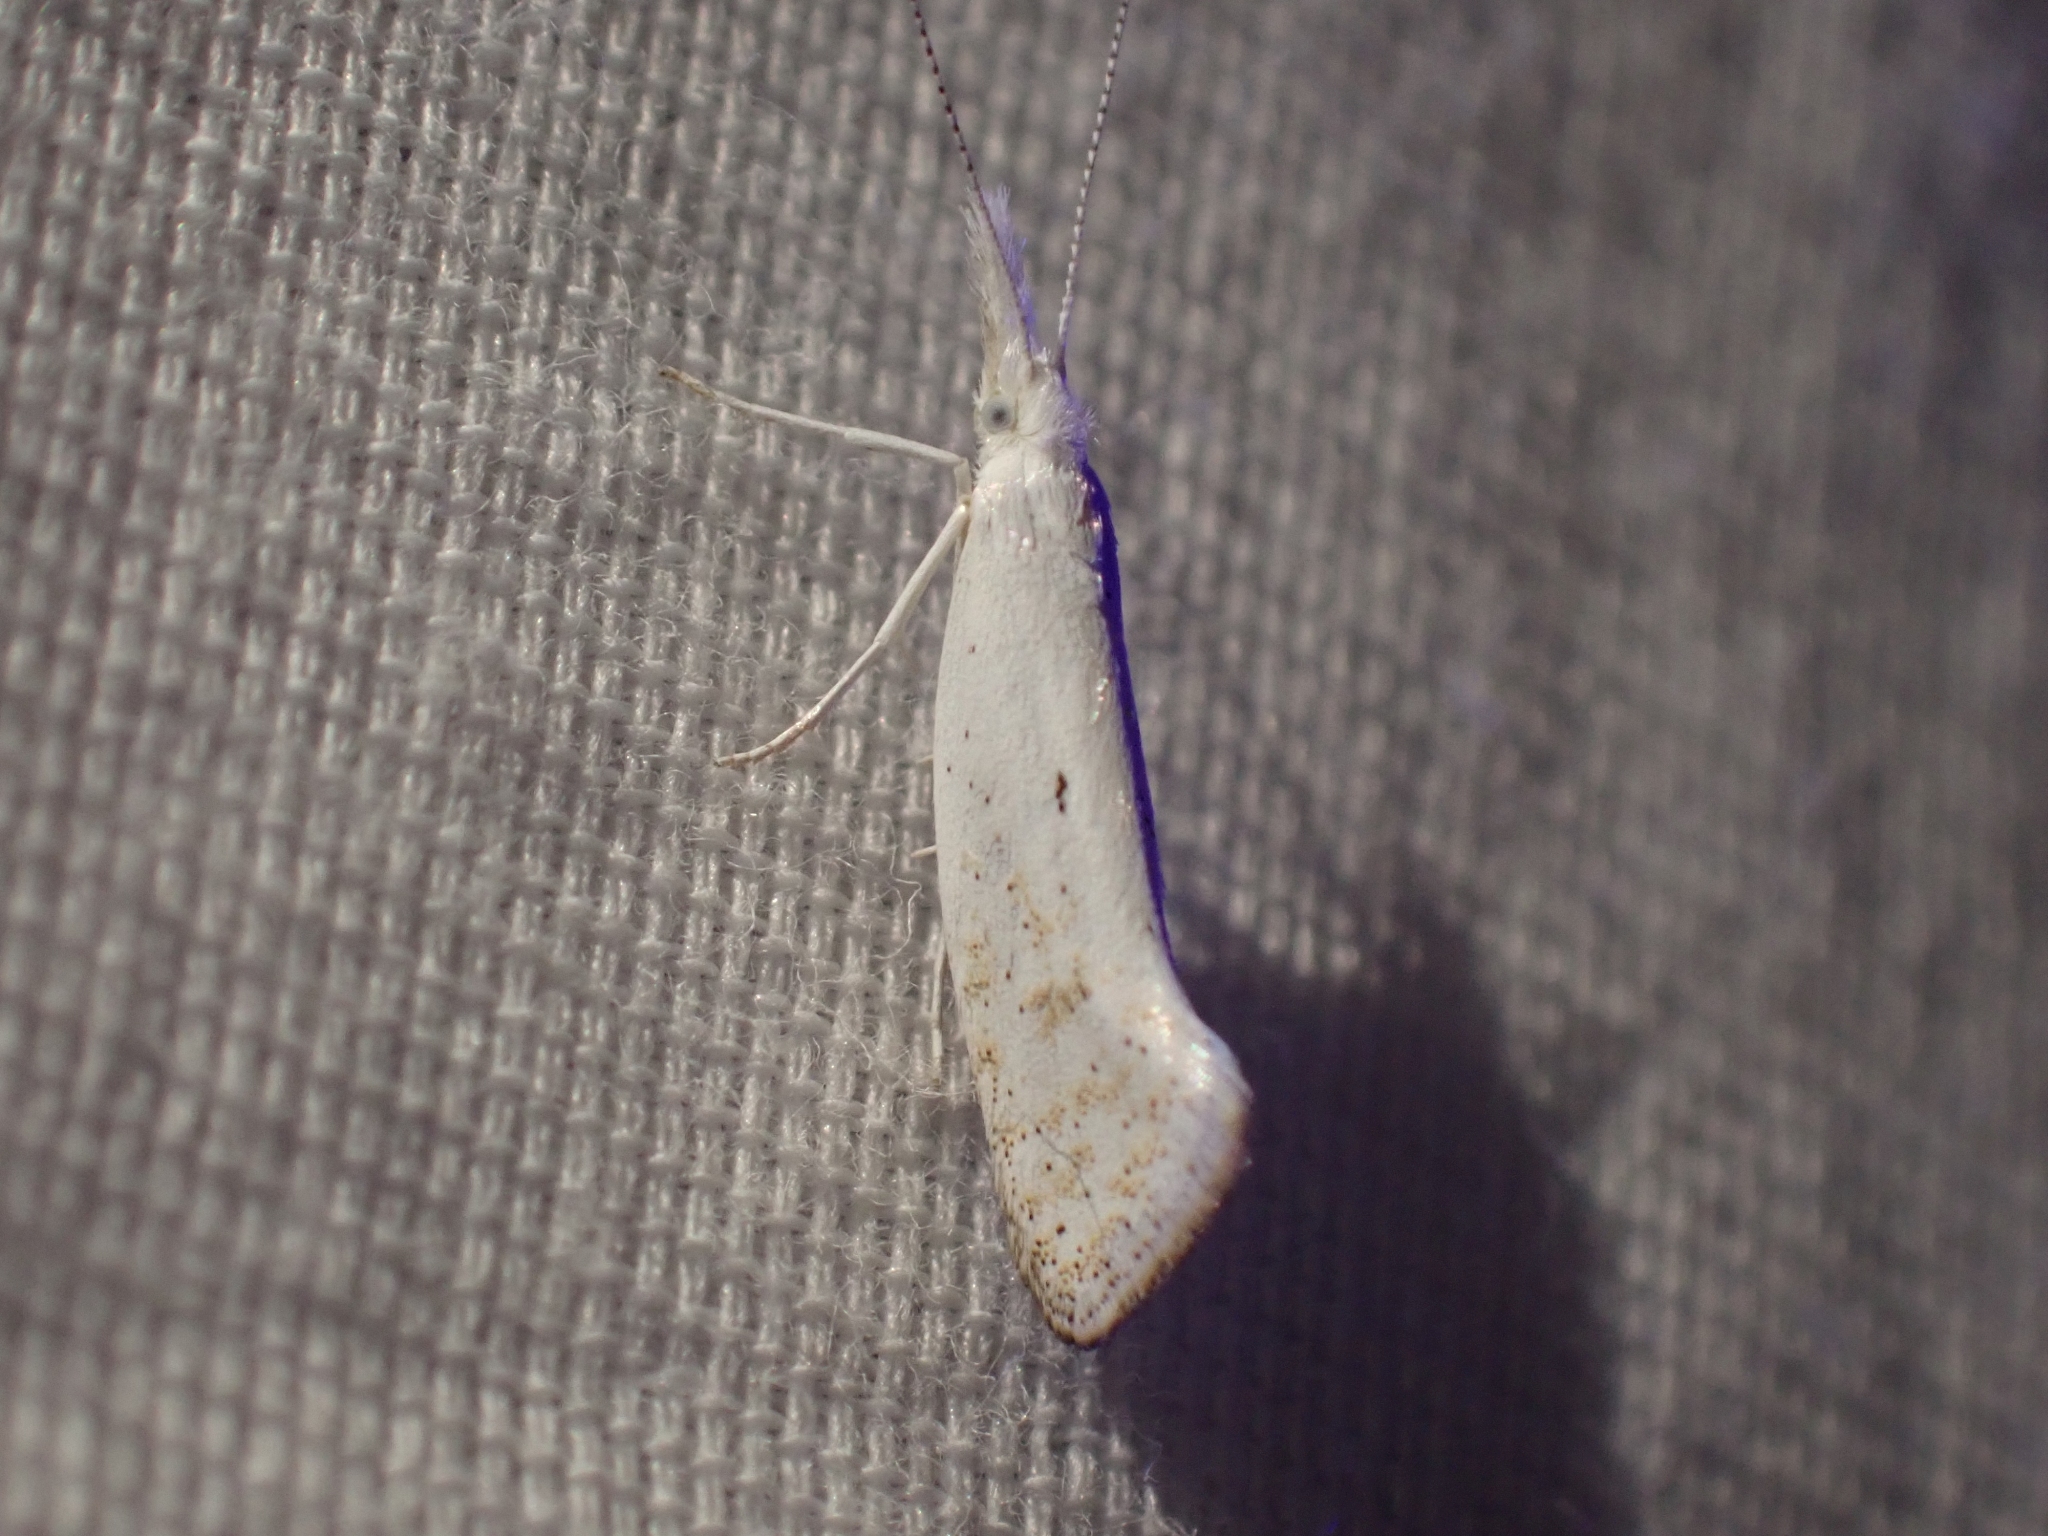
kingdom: Animalia
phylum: Arthropoda
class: Insecta
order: Lepidoptera
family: Ypsolophidae
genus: Euceratia
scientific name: Euceratia castella
